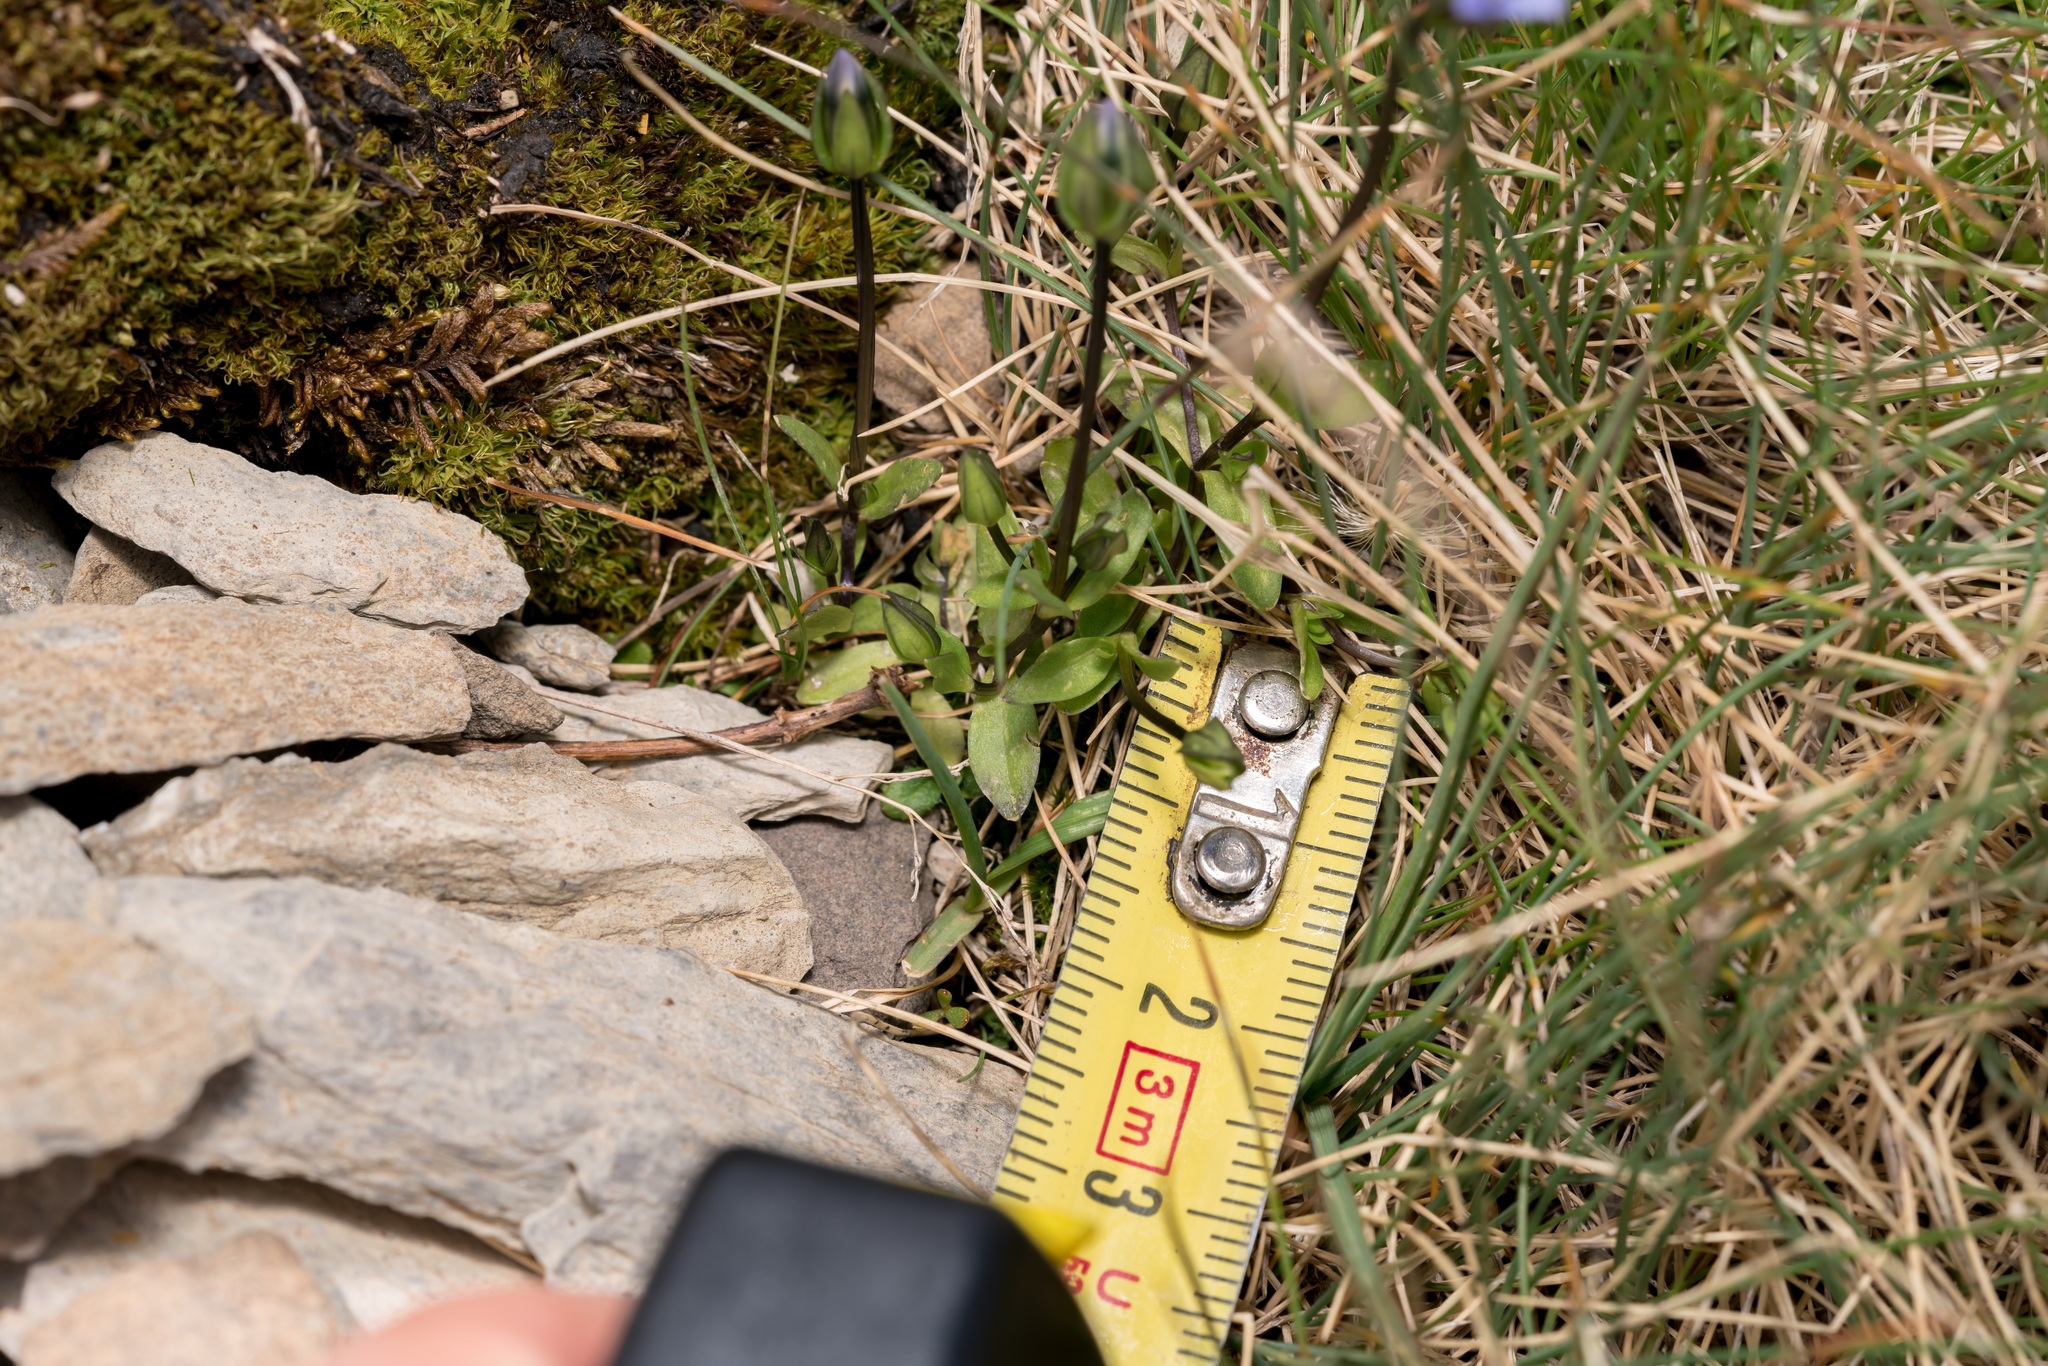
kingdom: Plantae
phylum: Tracheophyta
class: Magnoliopsida
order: Gentianales
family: Gentianaceae
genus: Comastoma
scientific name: Comastoma tenellum
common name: Dane's dwarf gentian
